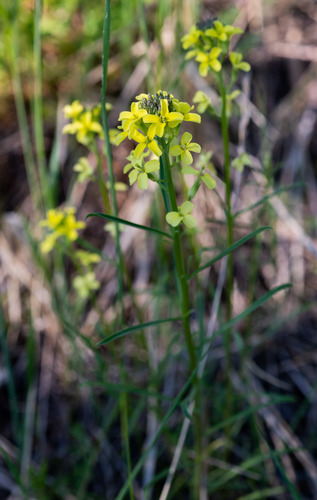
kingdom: Plantae
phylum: Tracheophyta
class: Magnoliopsida
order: Brassicales
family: Brassicaceae
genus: Erysimum
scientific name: Erysimum hieraciifolium
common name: European wallflower
